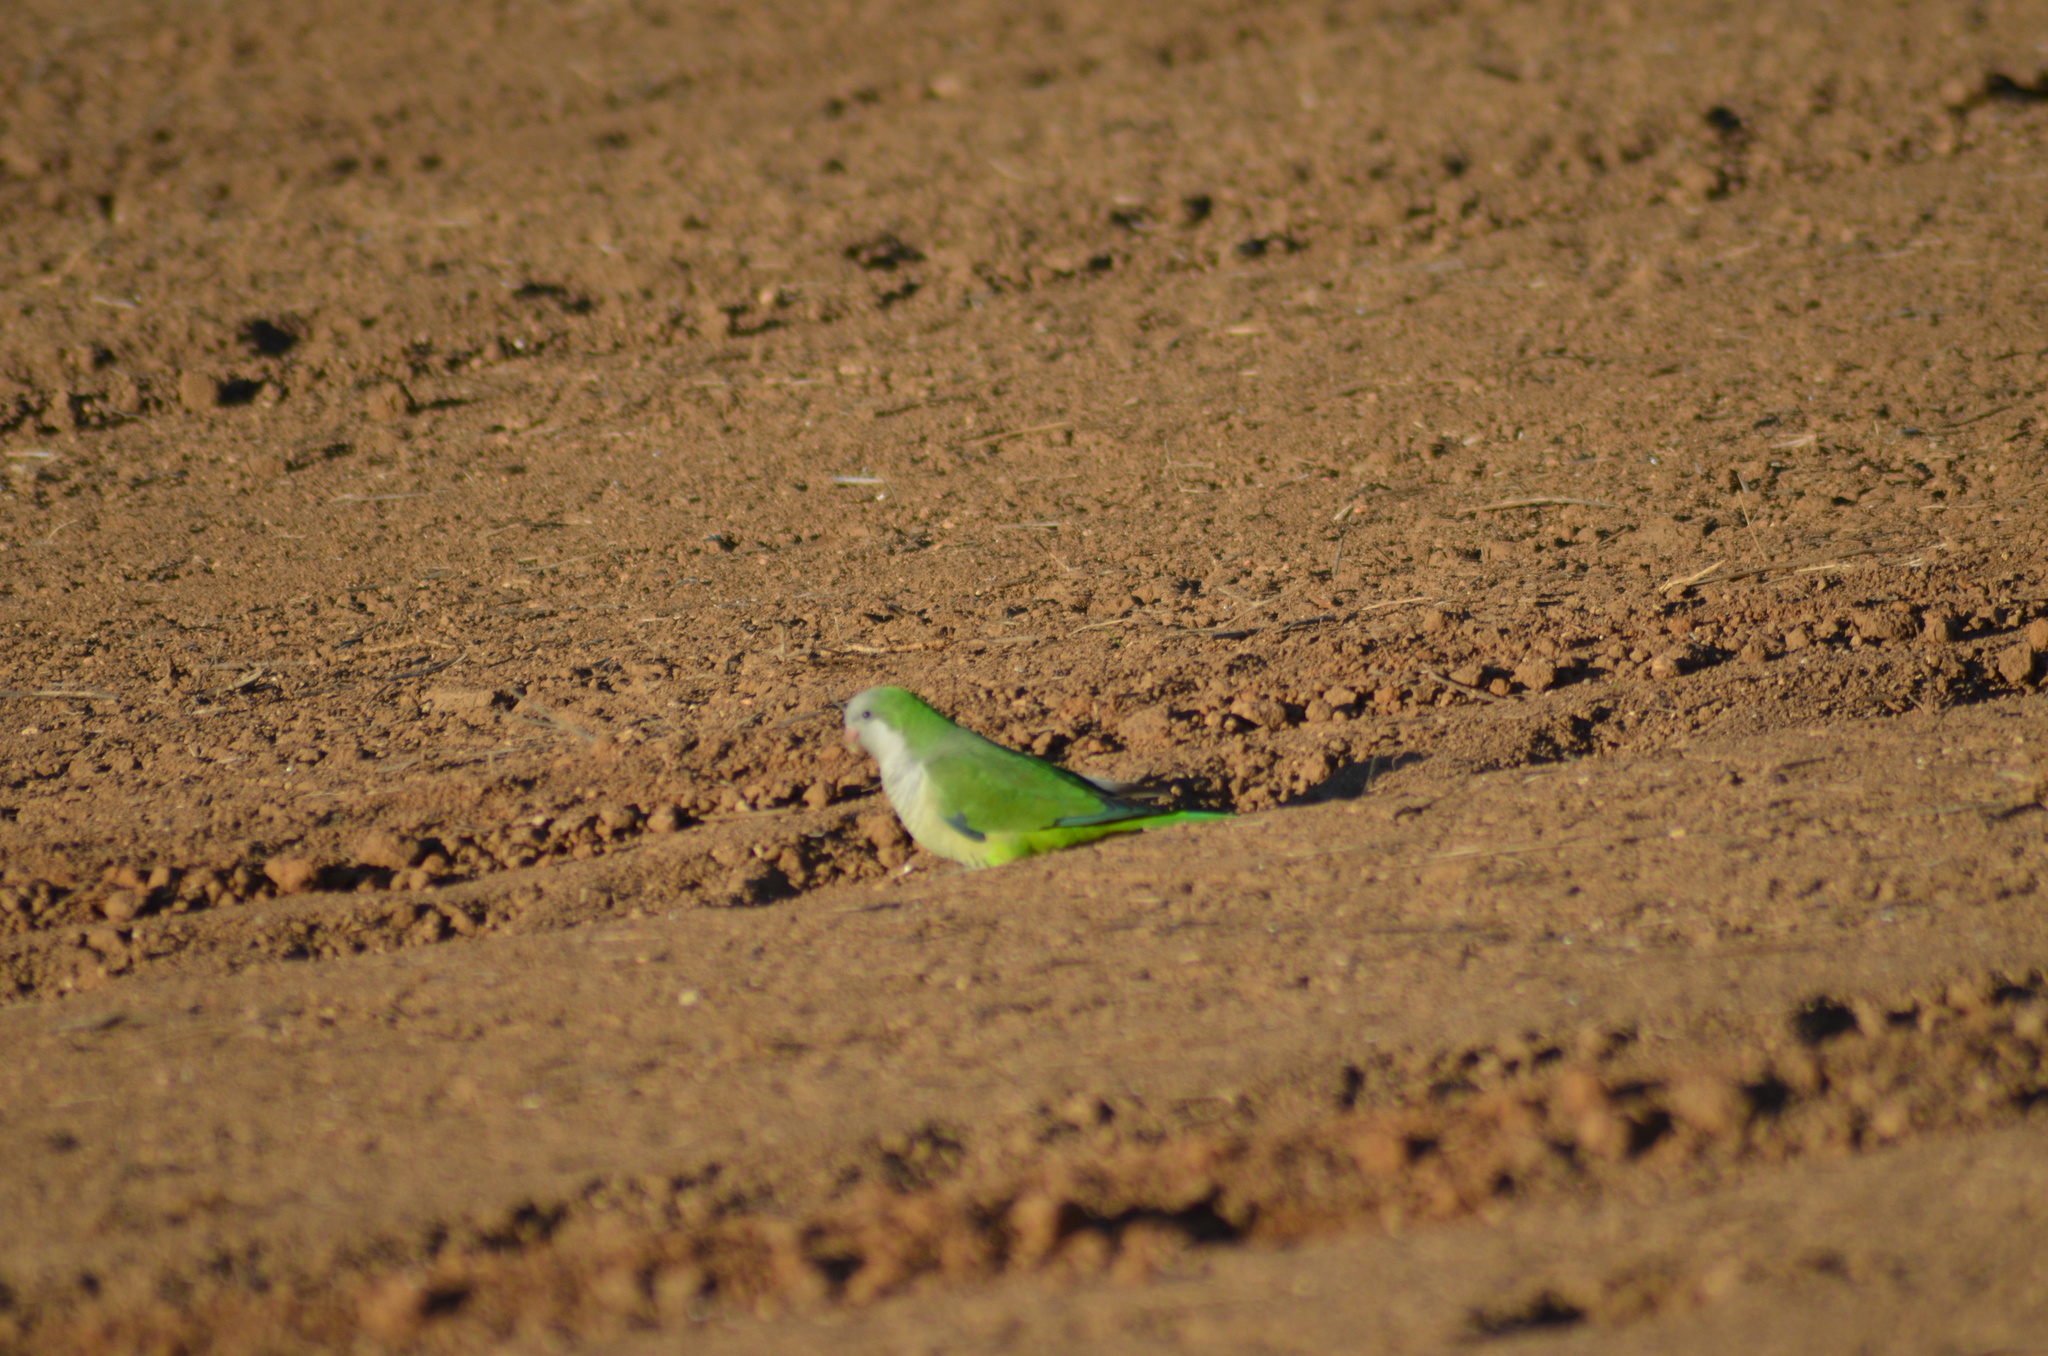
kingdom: Animalia
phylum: Chordata
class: Aves
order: Psittaciformes
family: Psittacidae
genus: Myiopsitta
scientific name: Myiopsitta monachus
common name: Monk parakeet
